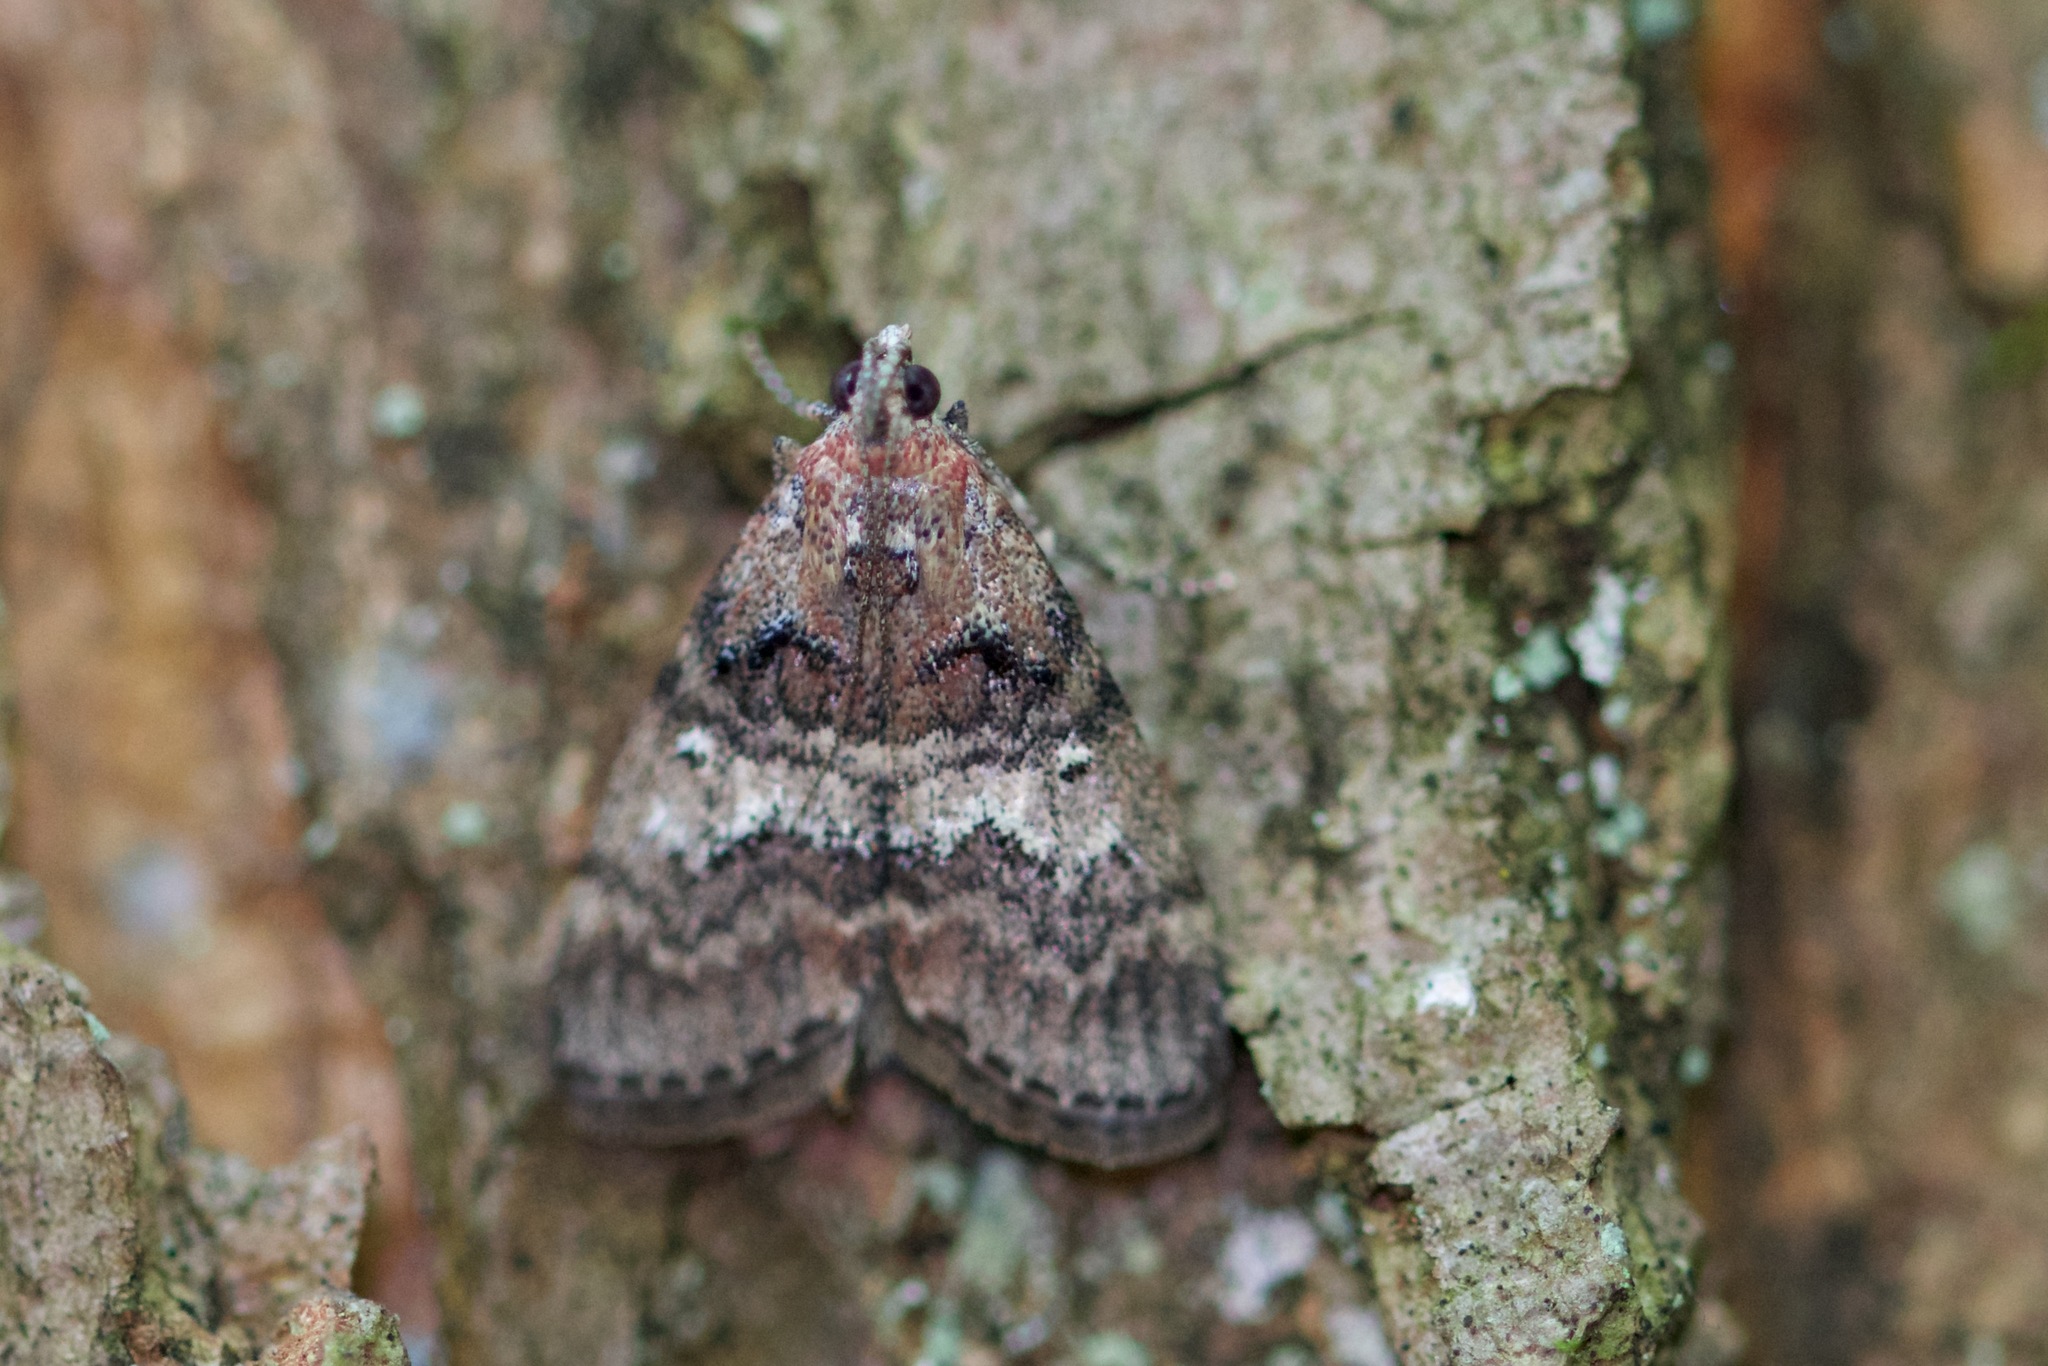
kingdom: Animalia
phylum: Arthropoda
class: Insecta
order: Lepidoptera
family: Pyralidae
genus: Pococera
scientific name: Pococera asperatella
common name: Maple webworm moth
